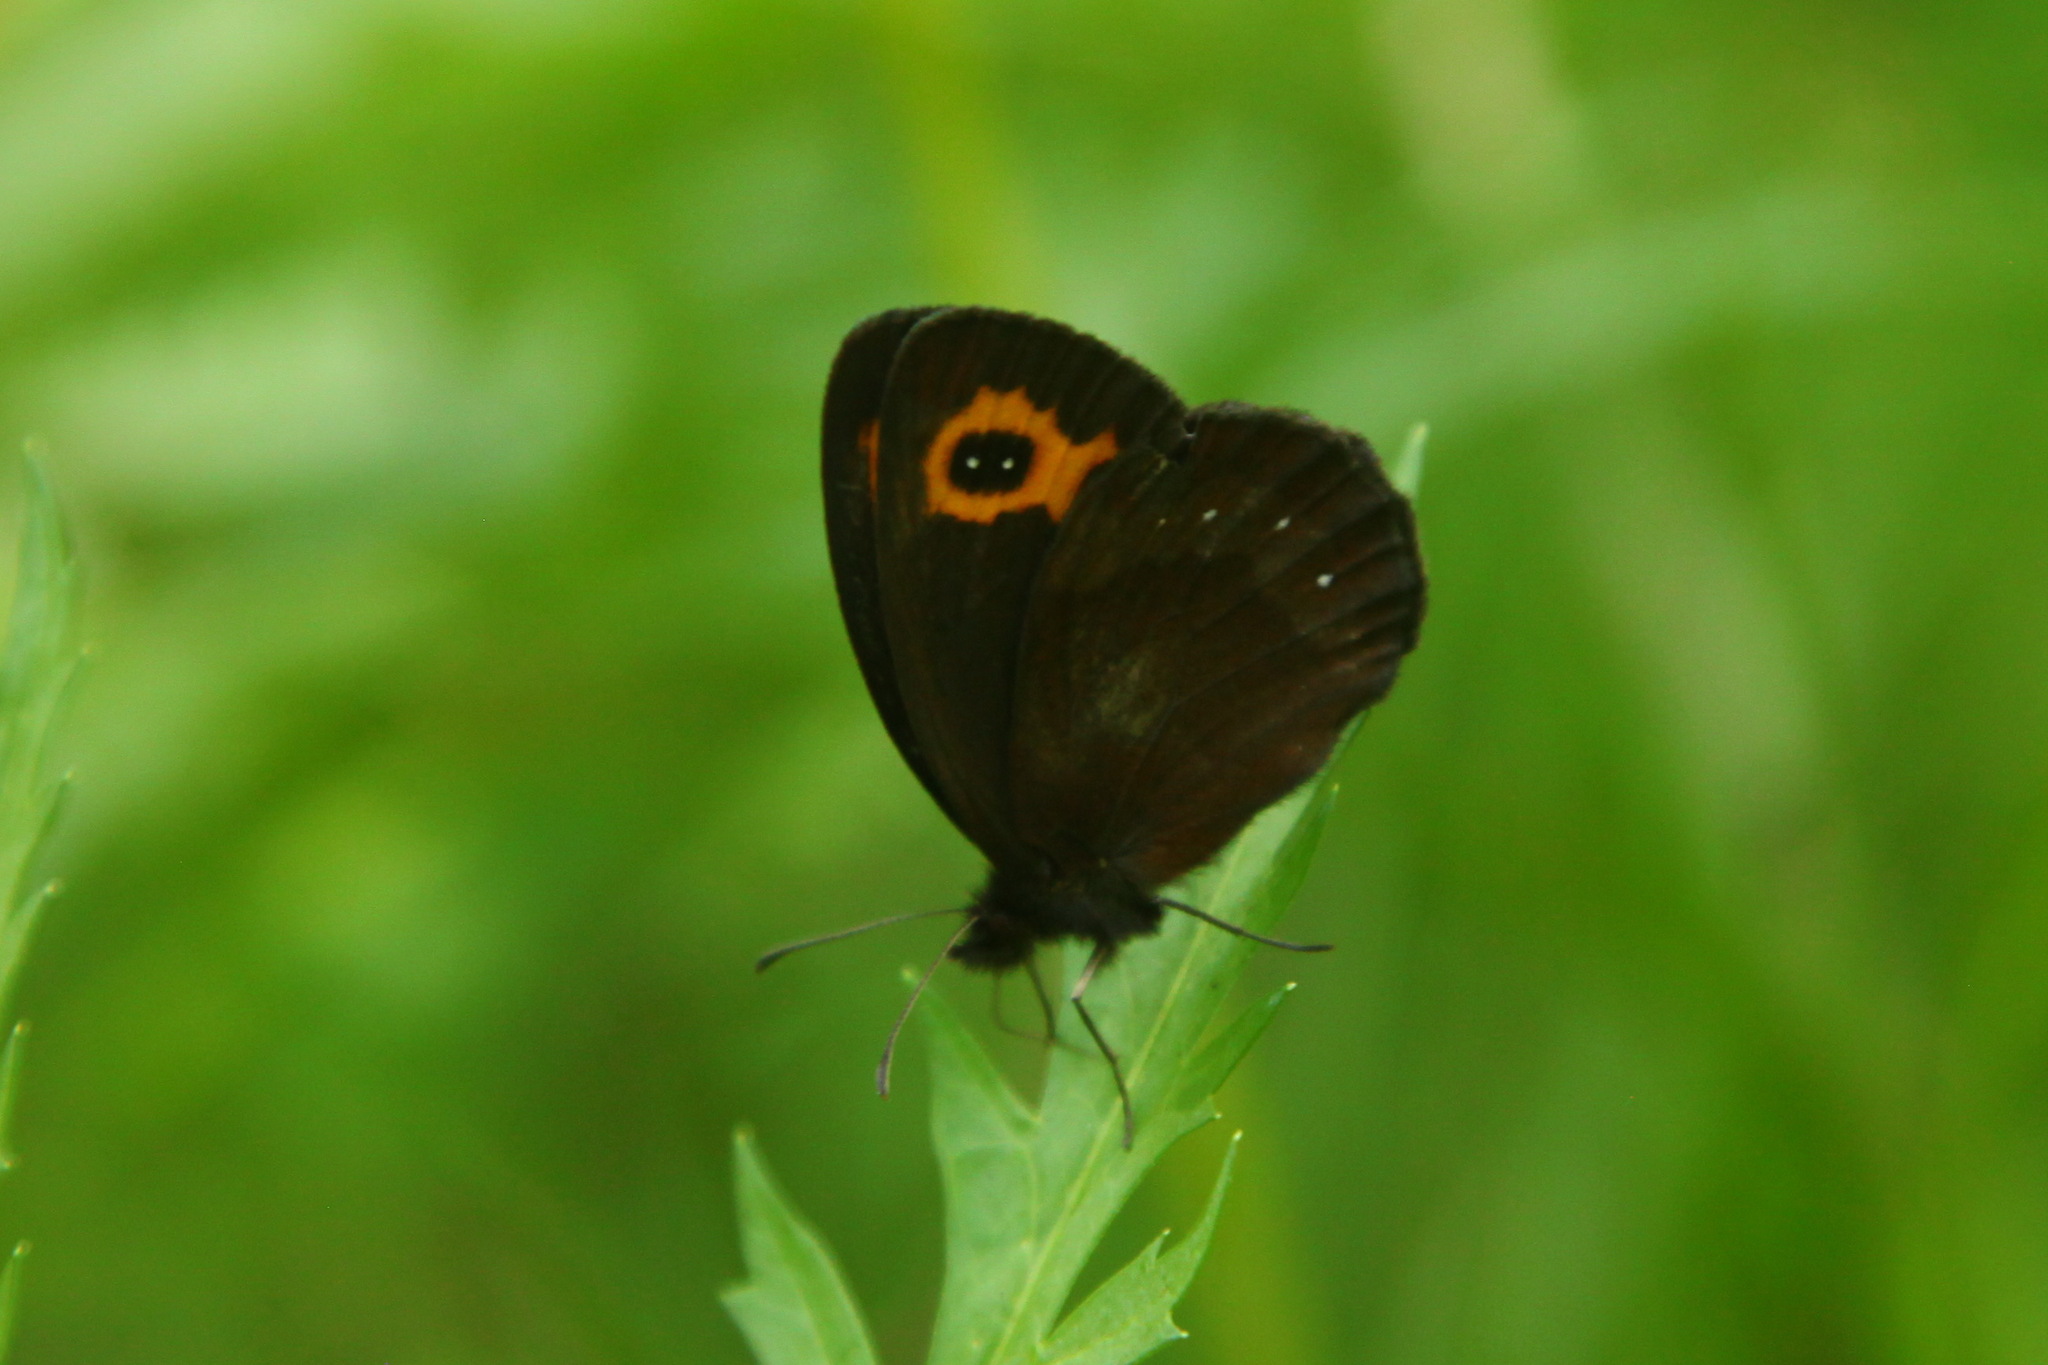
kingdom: Animalia
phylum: Arthropoda
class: Insecta
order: Lepidoptera
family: Nymphalidae
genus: Erebia
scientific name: Erebia neriene
